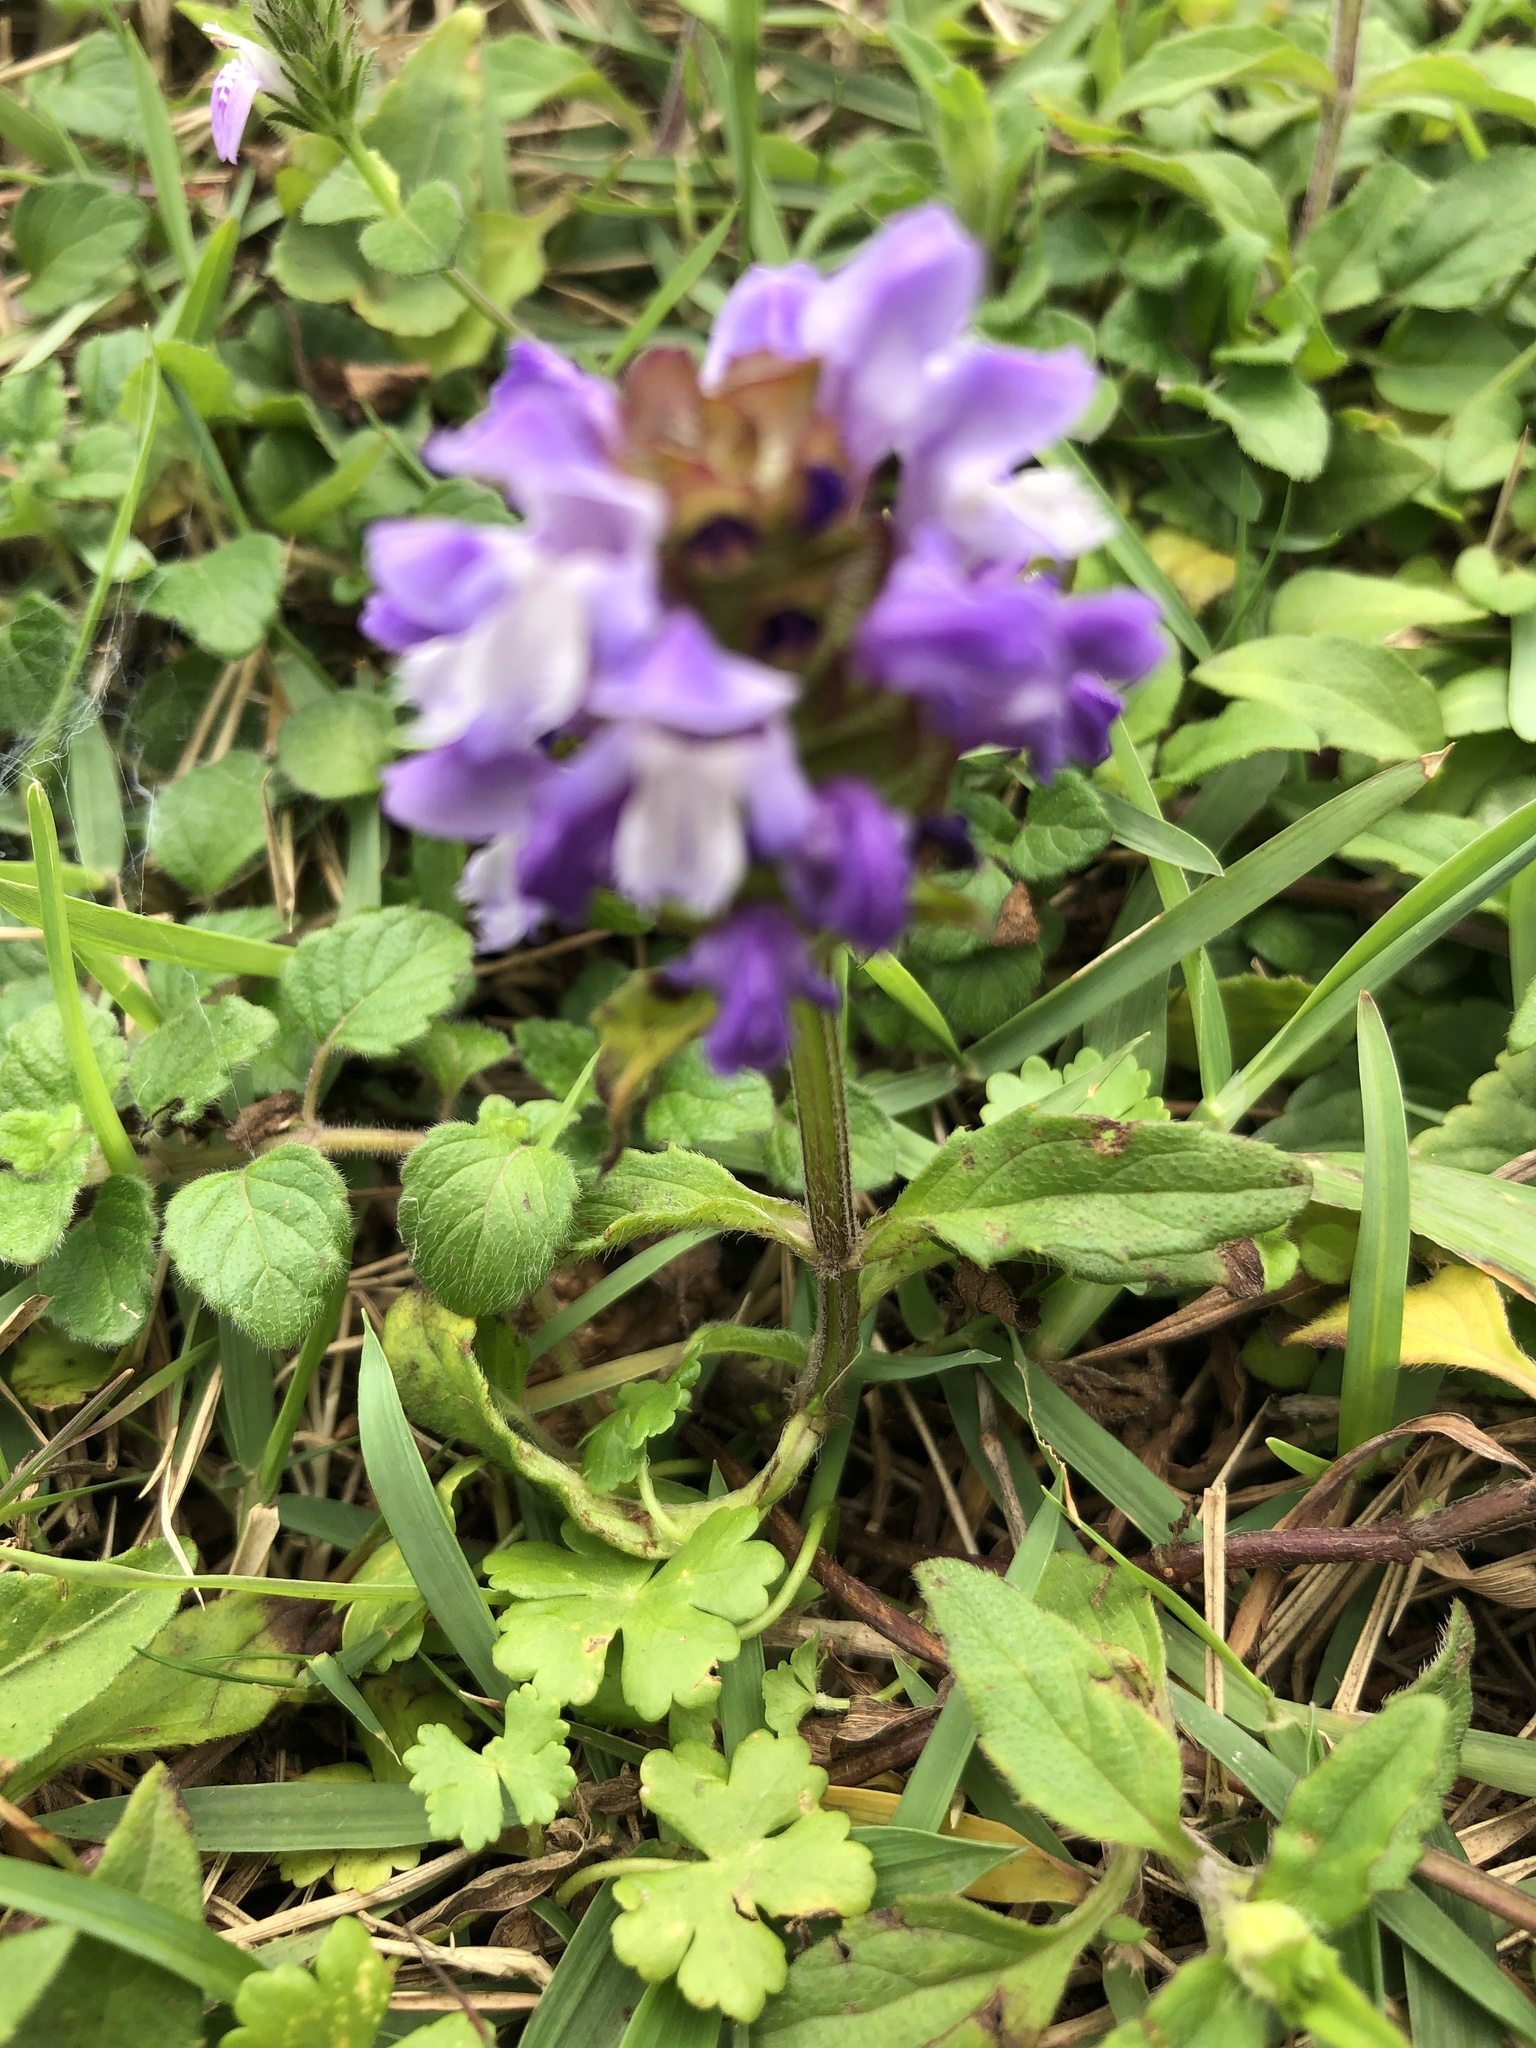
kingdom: Plantae
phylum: Tracheophyta
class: Magnoliopsida
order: Lamiales
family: Lamiaceae
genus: Prunella
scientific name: Prunella vulgaris
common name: Heal-all
